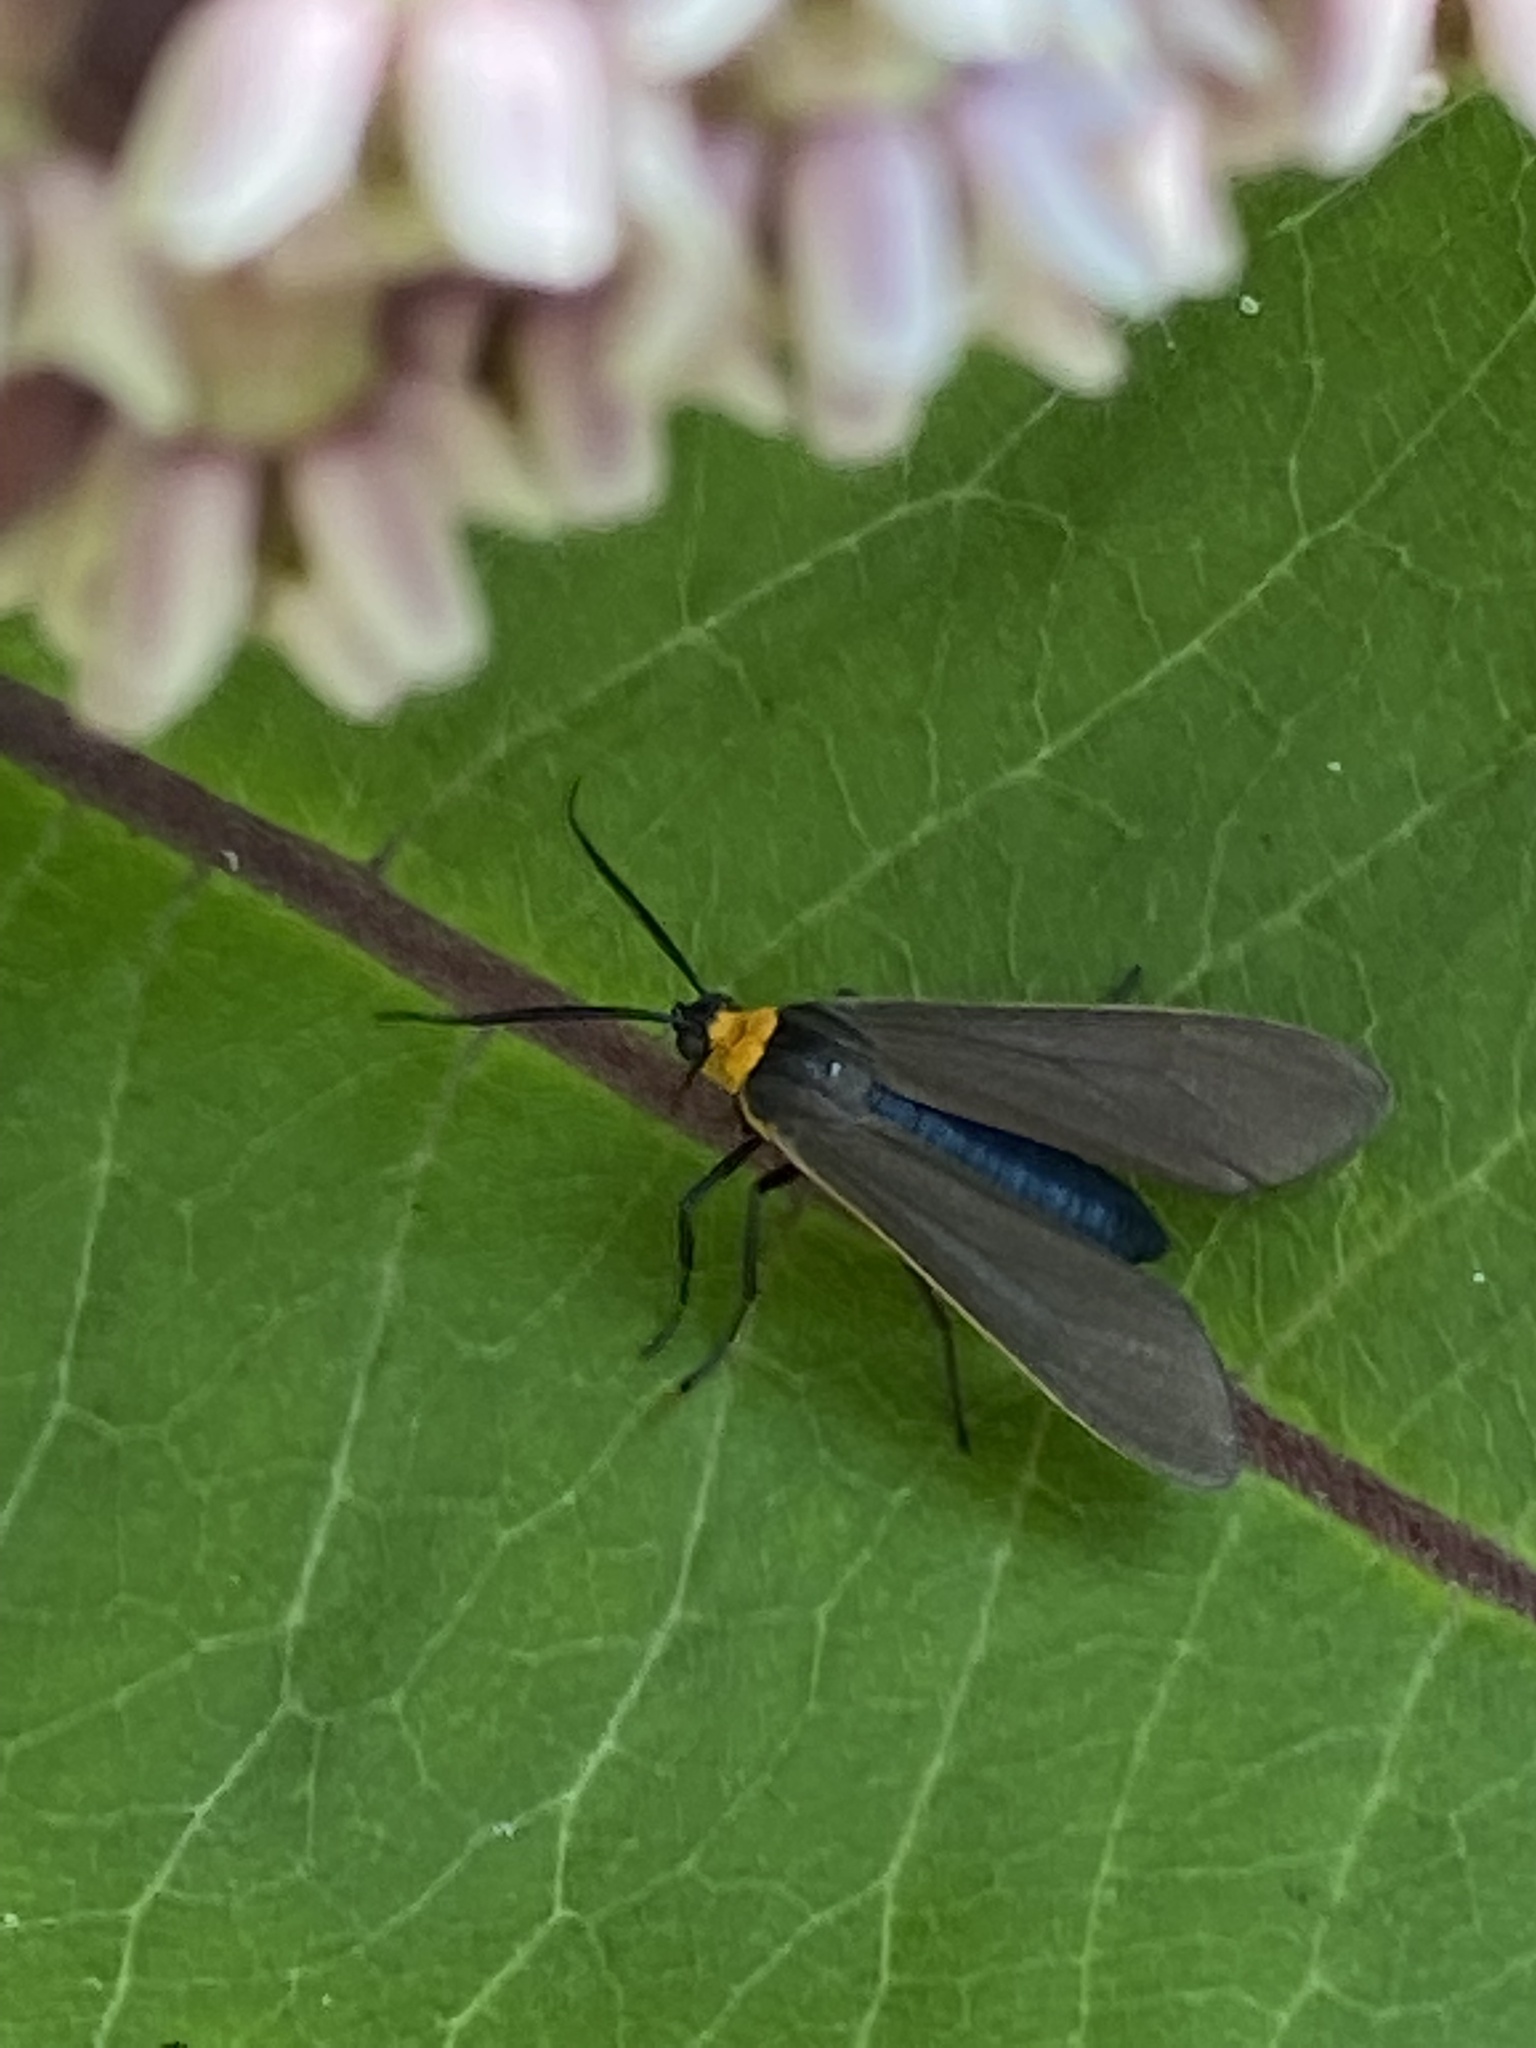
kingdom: Animalia
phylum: Arthropoda
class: Insecta
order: Lepidoptera
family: Erebidae
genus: Cisseps
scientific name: Cisseps fulvicollis
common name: Yellow-collared scape moth
